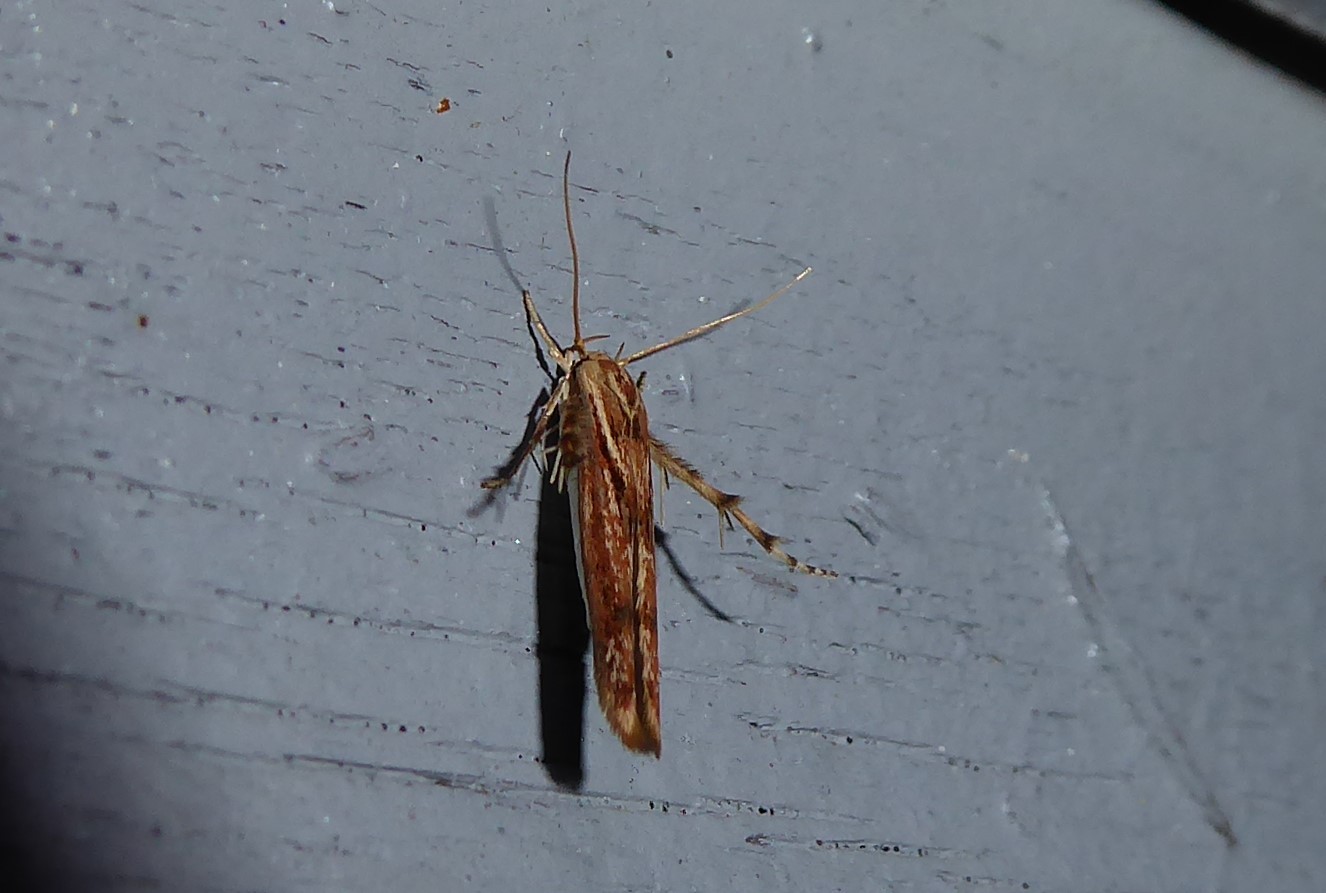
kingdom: Animalia
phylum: Arthropoda
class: Insecta
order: Lepidoptera
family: Stathmopodidae
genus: Stathmopoda
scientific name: Stathmopoda cephalaea
